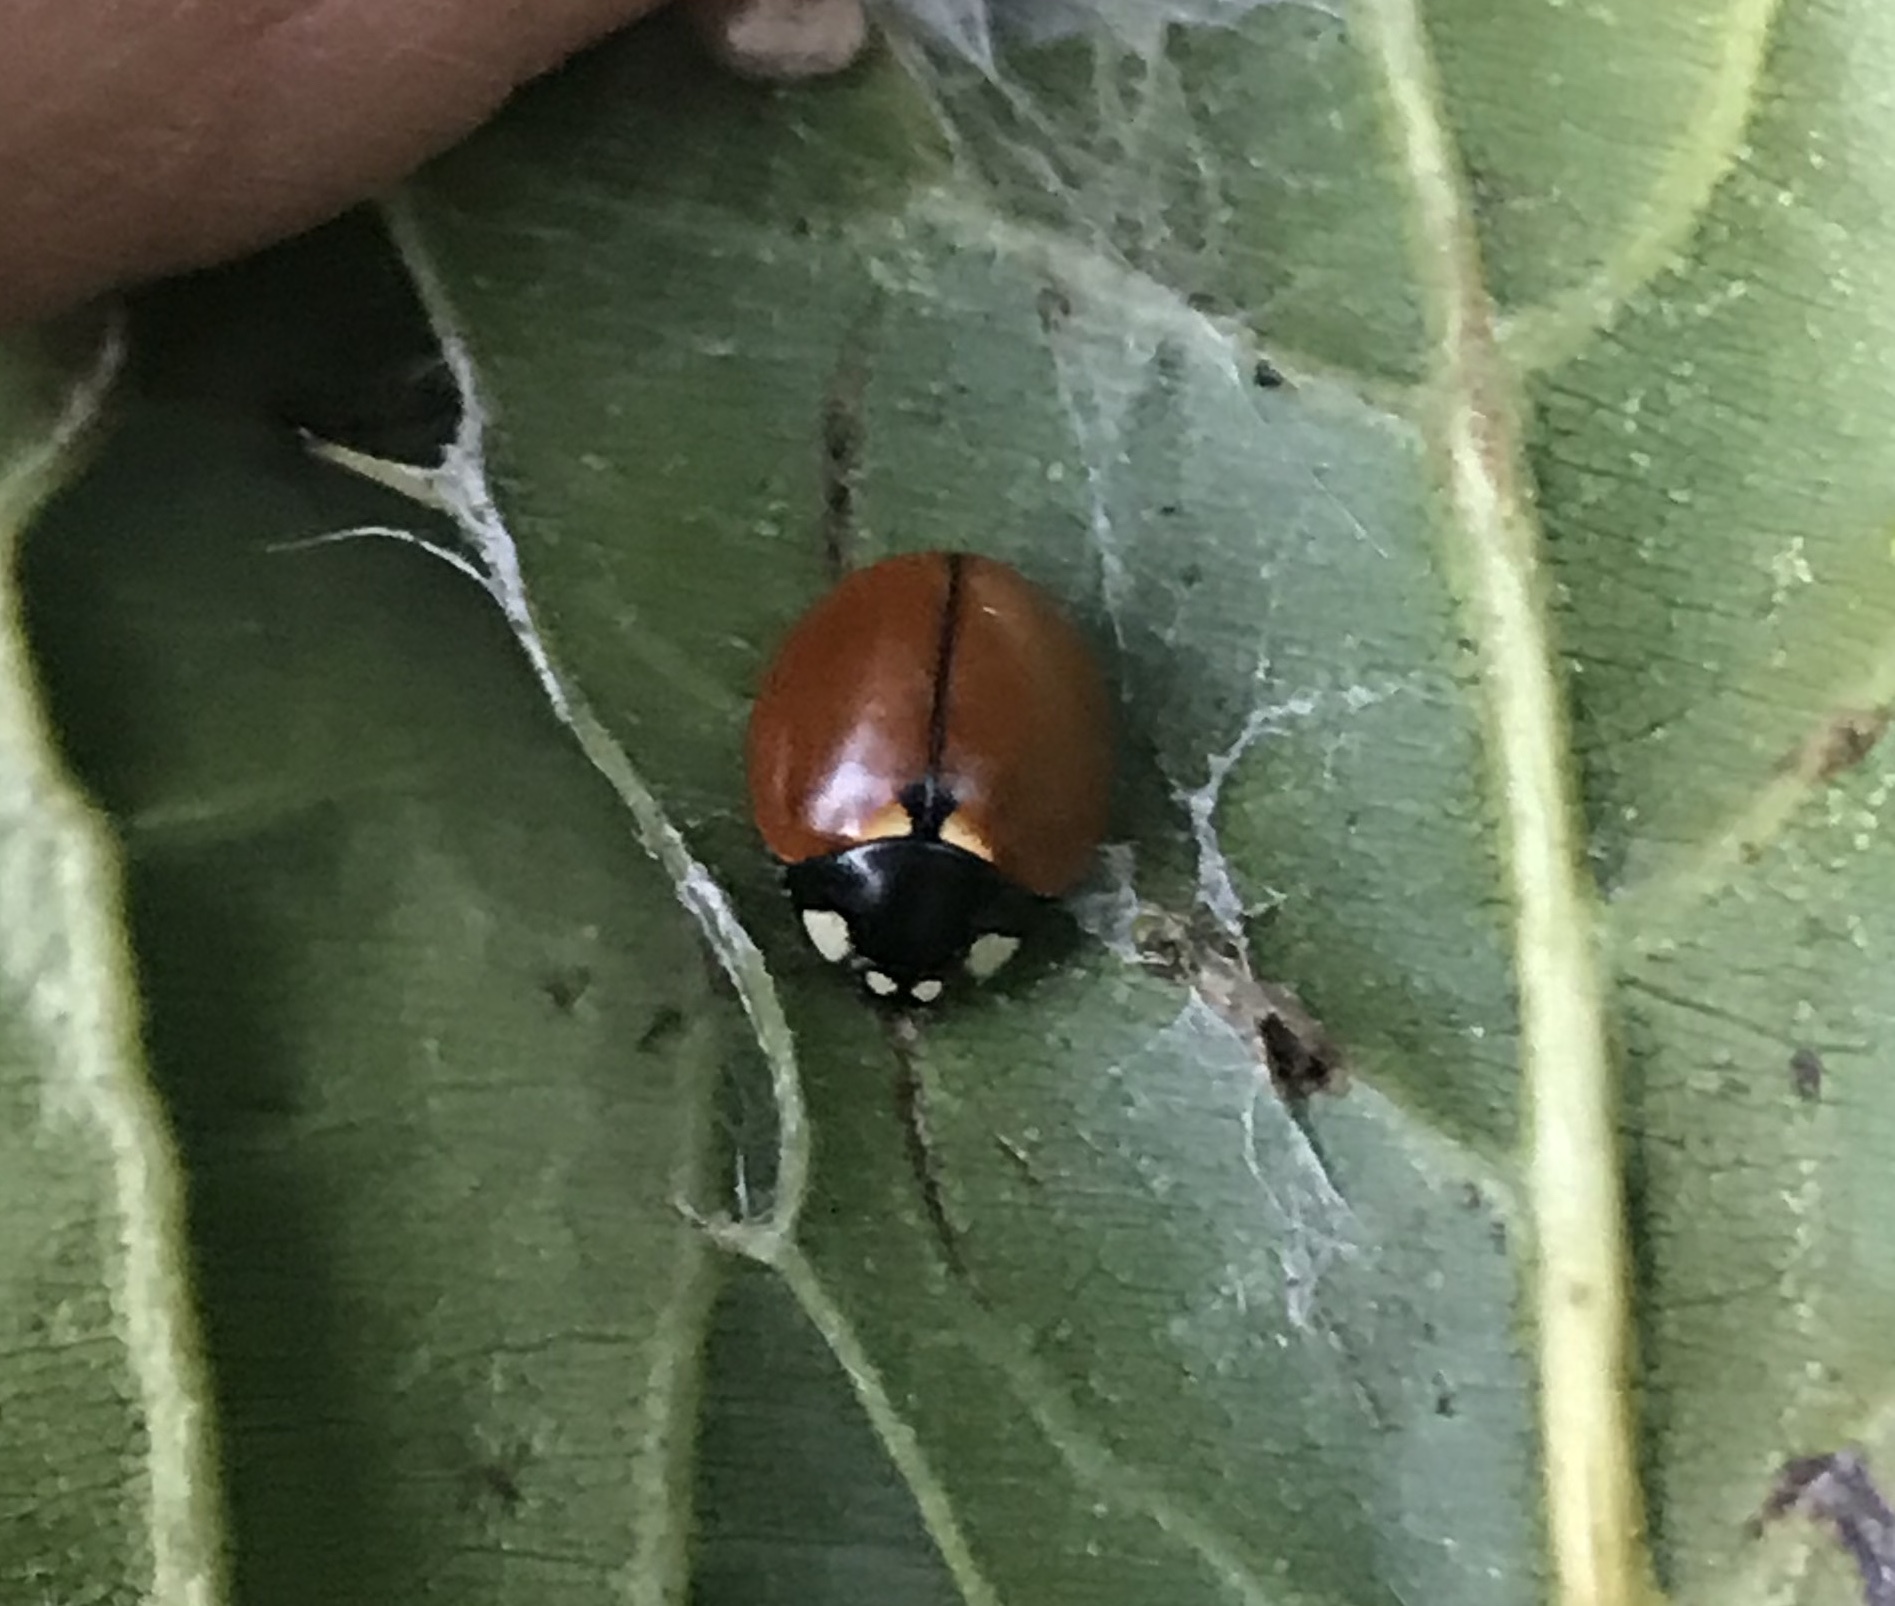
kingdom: Animalia
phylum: Arthropoda
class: Insecta
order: Coleoptera
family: Coccinellidae
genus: Coccinella
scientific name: Coccinella californica
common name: Lady beetle
